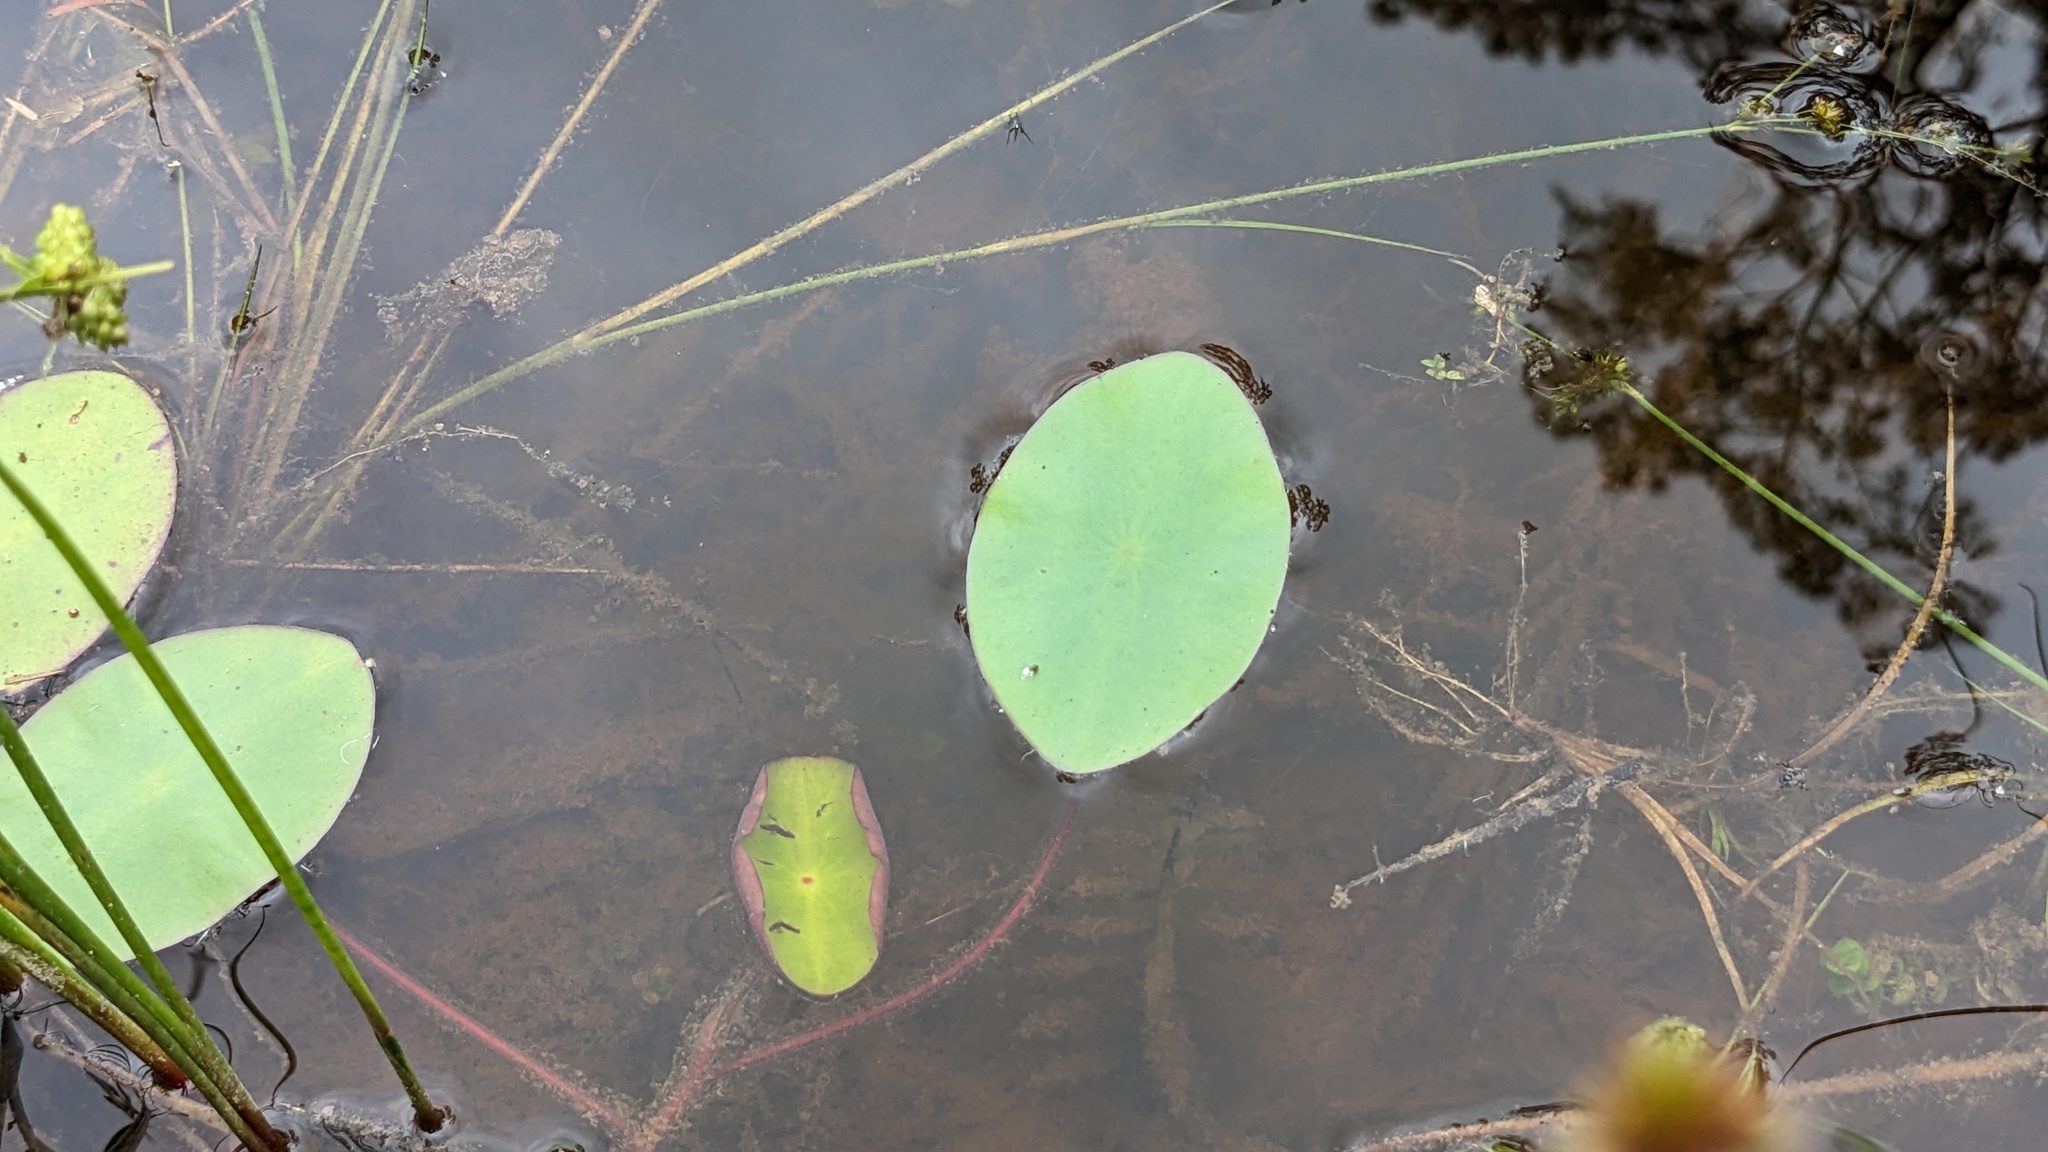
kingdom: Plantae
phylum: Tracheophyta
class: Magnoliopsida
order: Nymphaeales
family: Cabombaceae
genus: Brasenia
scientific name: Brasenia schreberi
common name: Water-shield
